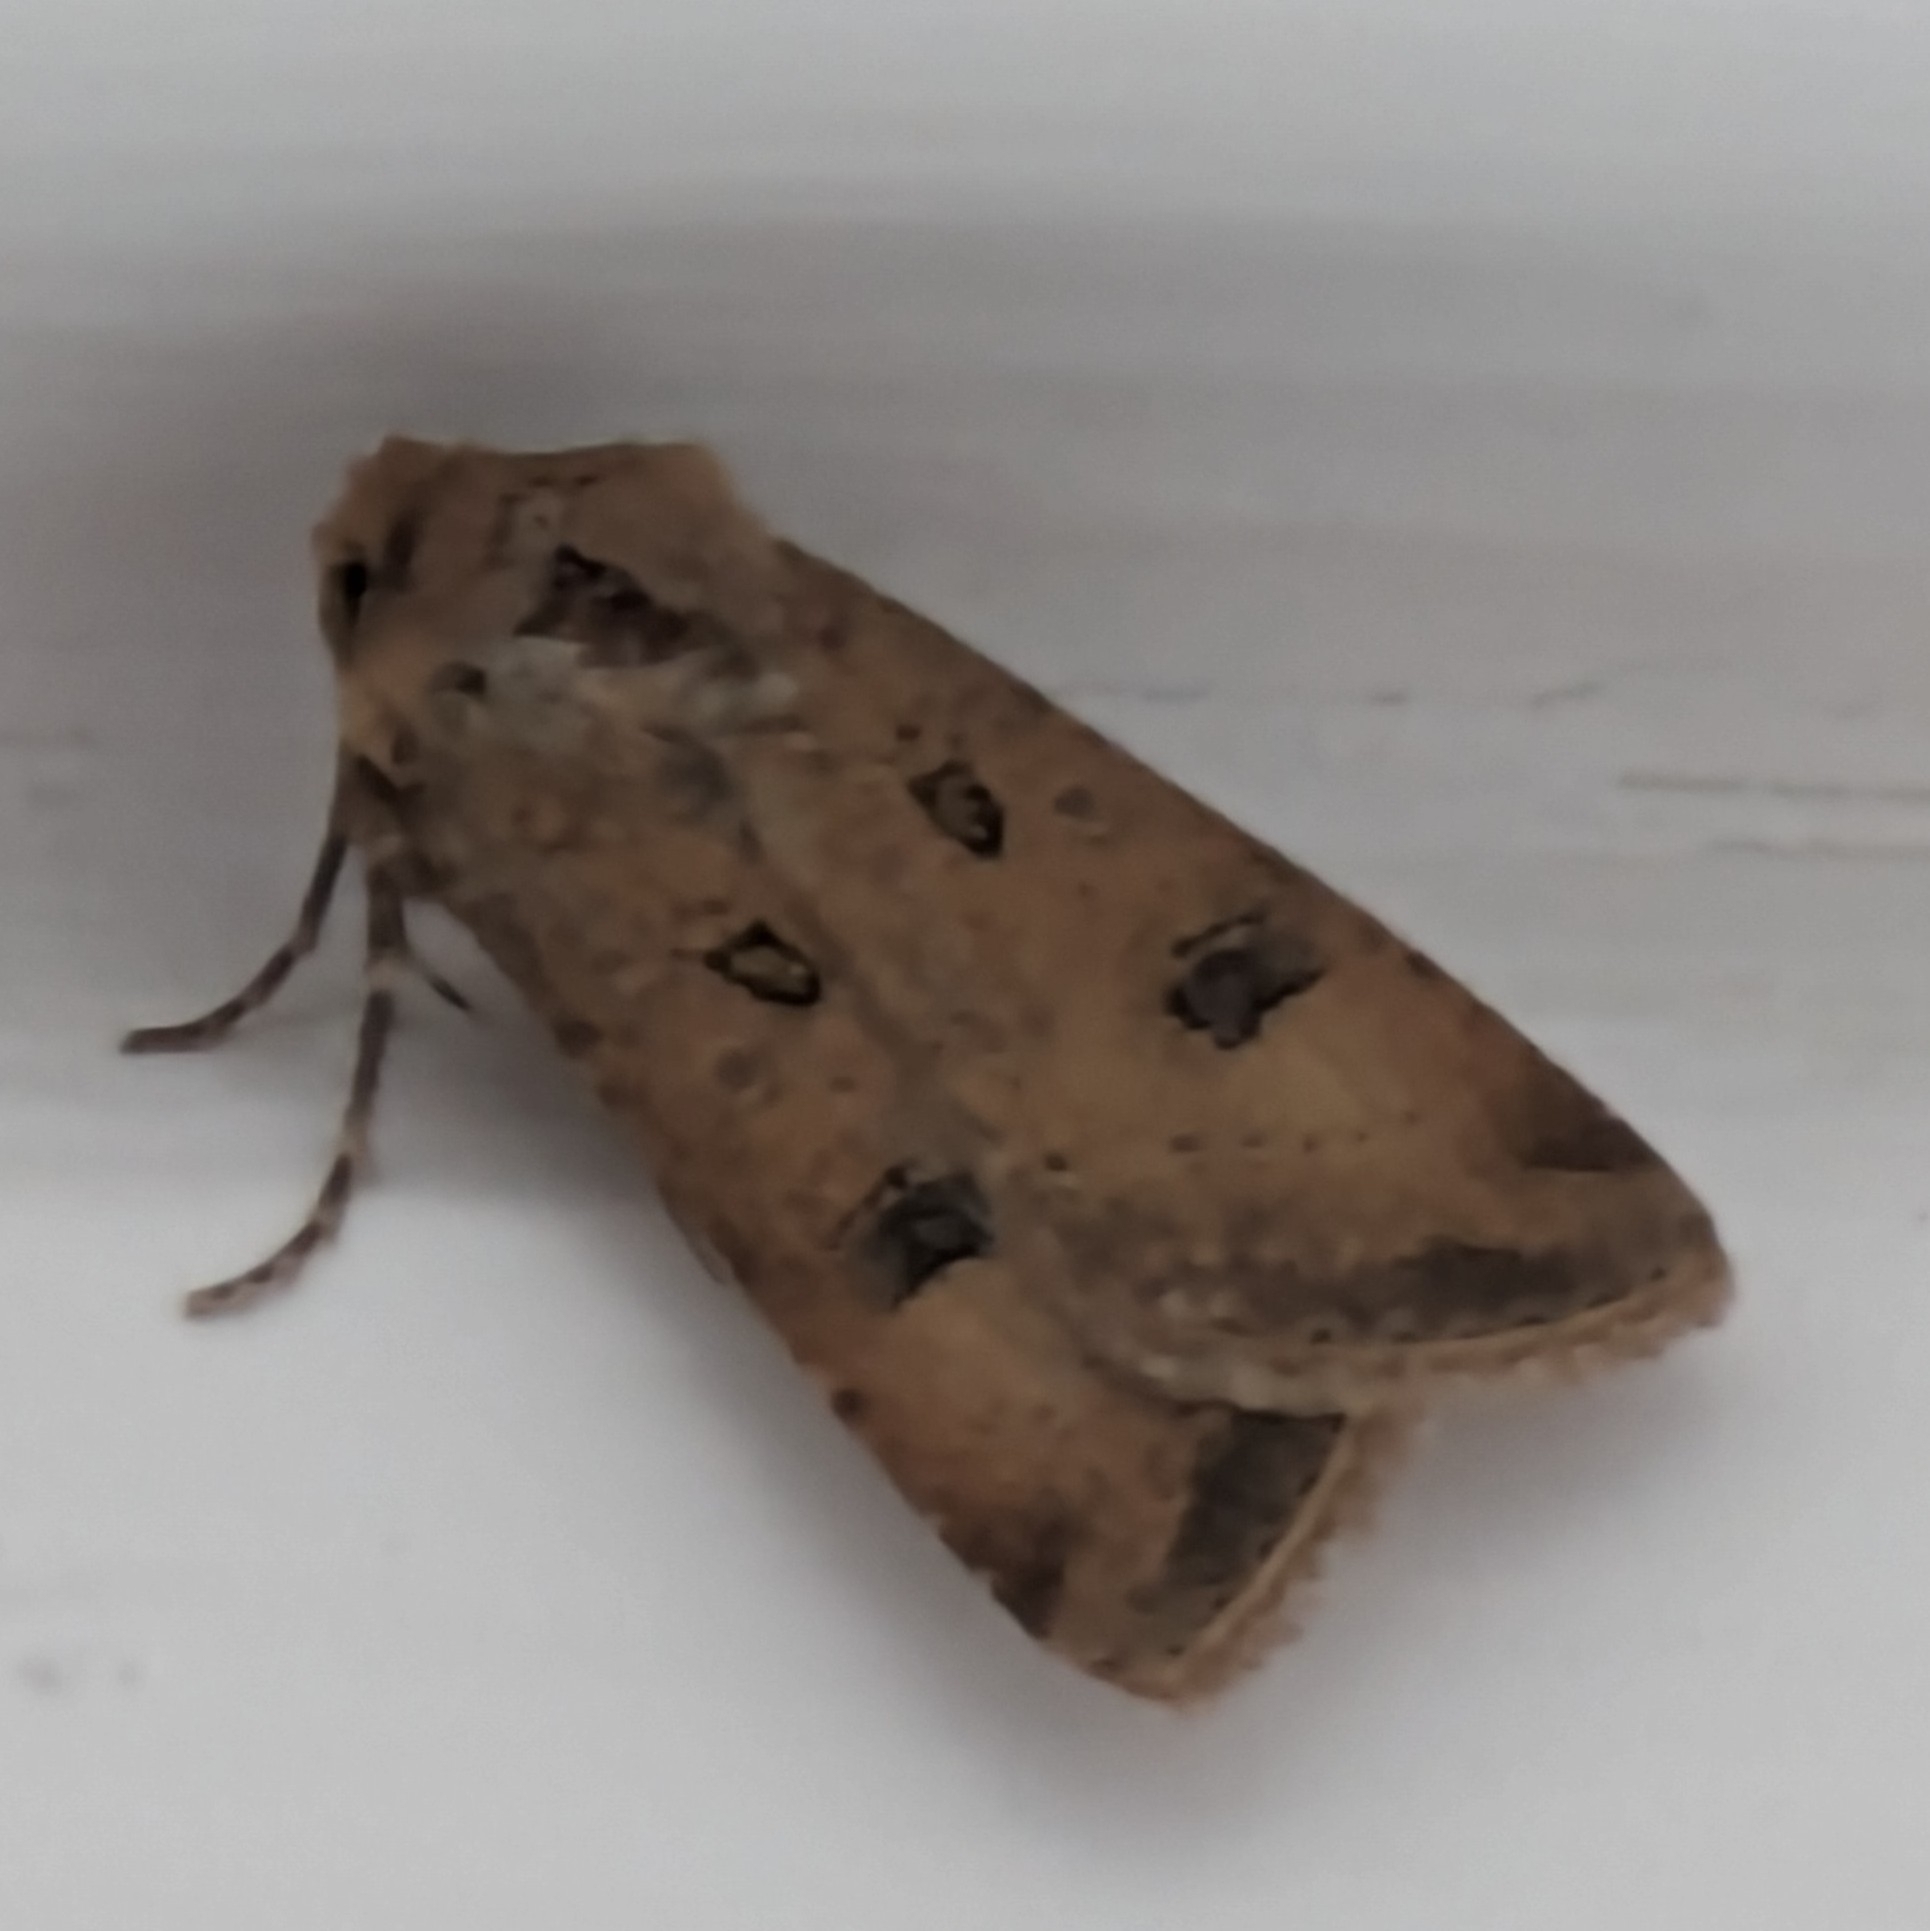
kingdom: Animalia
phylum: Arthropoda
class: Insecta
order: Lepidoptera
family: Noctuidae
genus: Agrotis
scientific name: Agrotis trux
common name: Crescent dart
